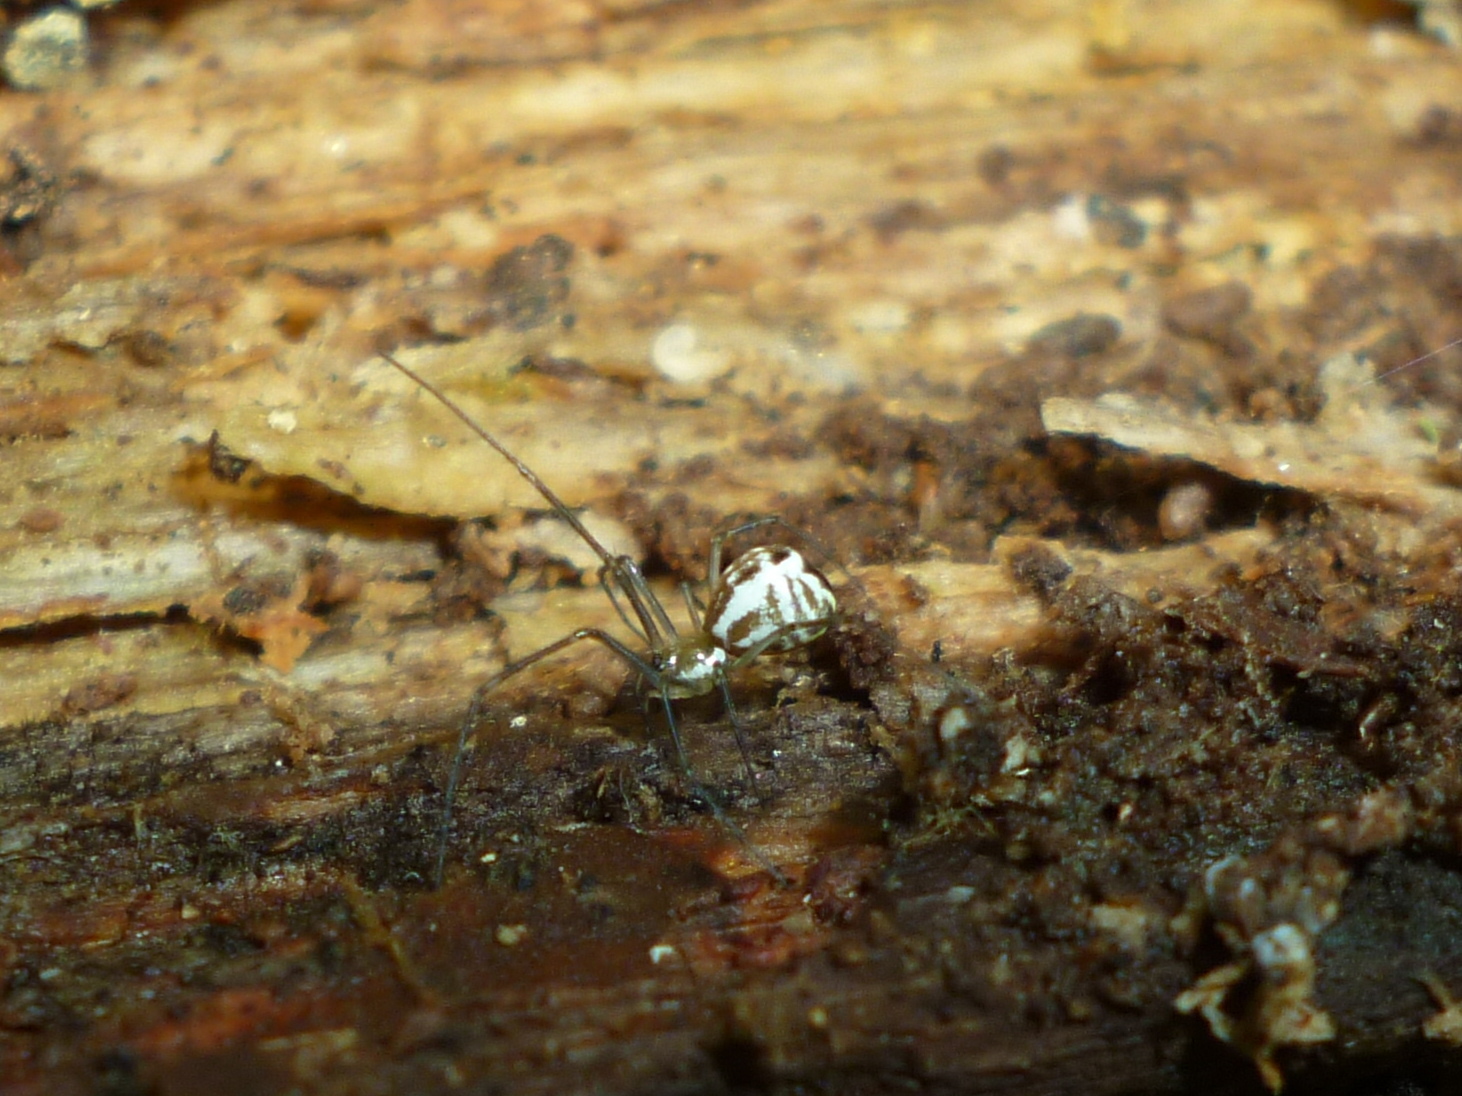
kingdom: Animalia
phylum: Arthropoda
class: Arachnida
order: Araneae
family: Linyphiidae
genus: Neriene
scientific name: Neriene radiata
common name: Filmy dome spider
